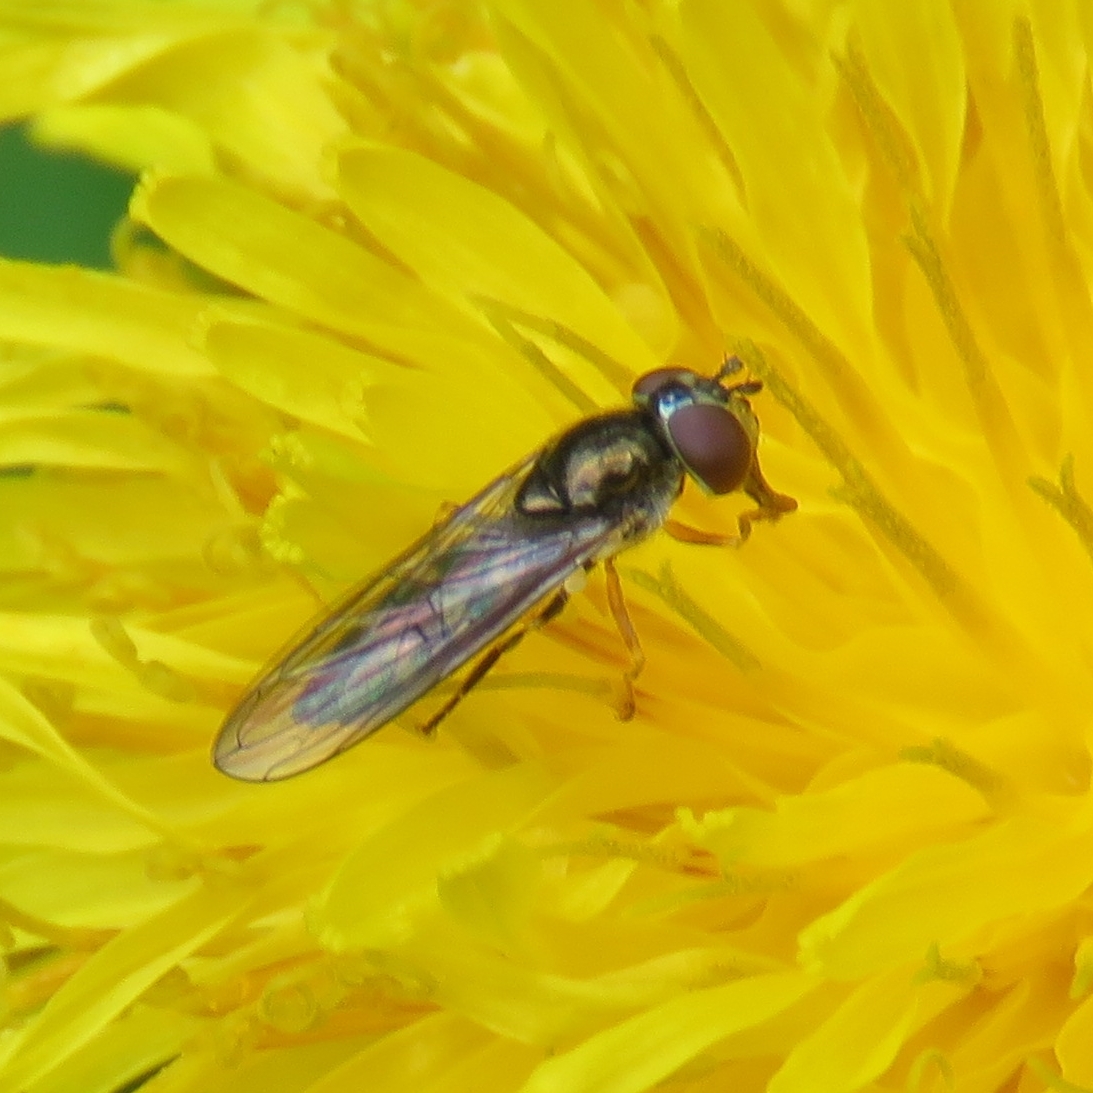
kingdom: Animalia
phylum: Arthropoda
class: Insecta
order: Diptera
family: Syrphidae
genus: Platycheirus
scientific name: Platycheirus
